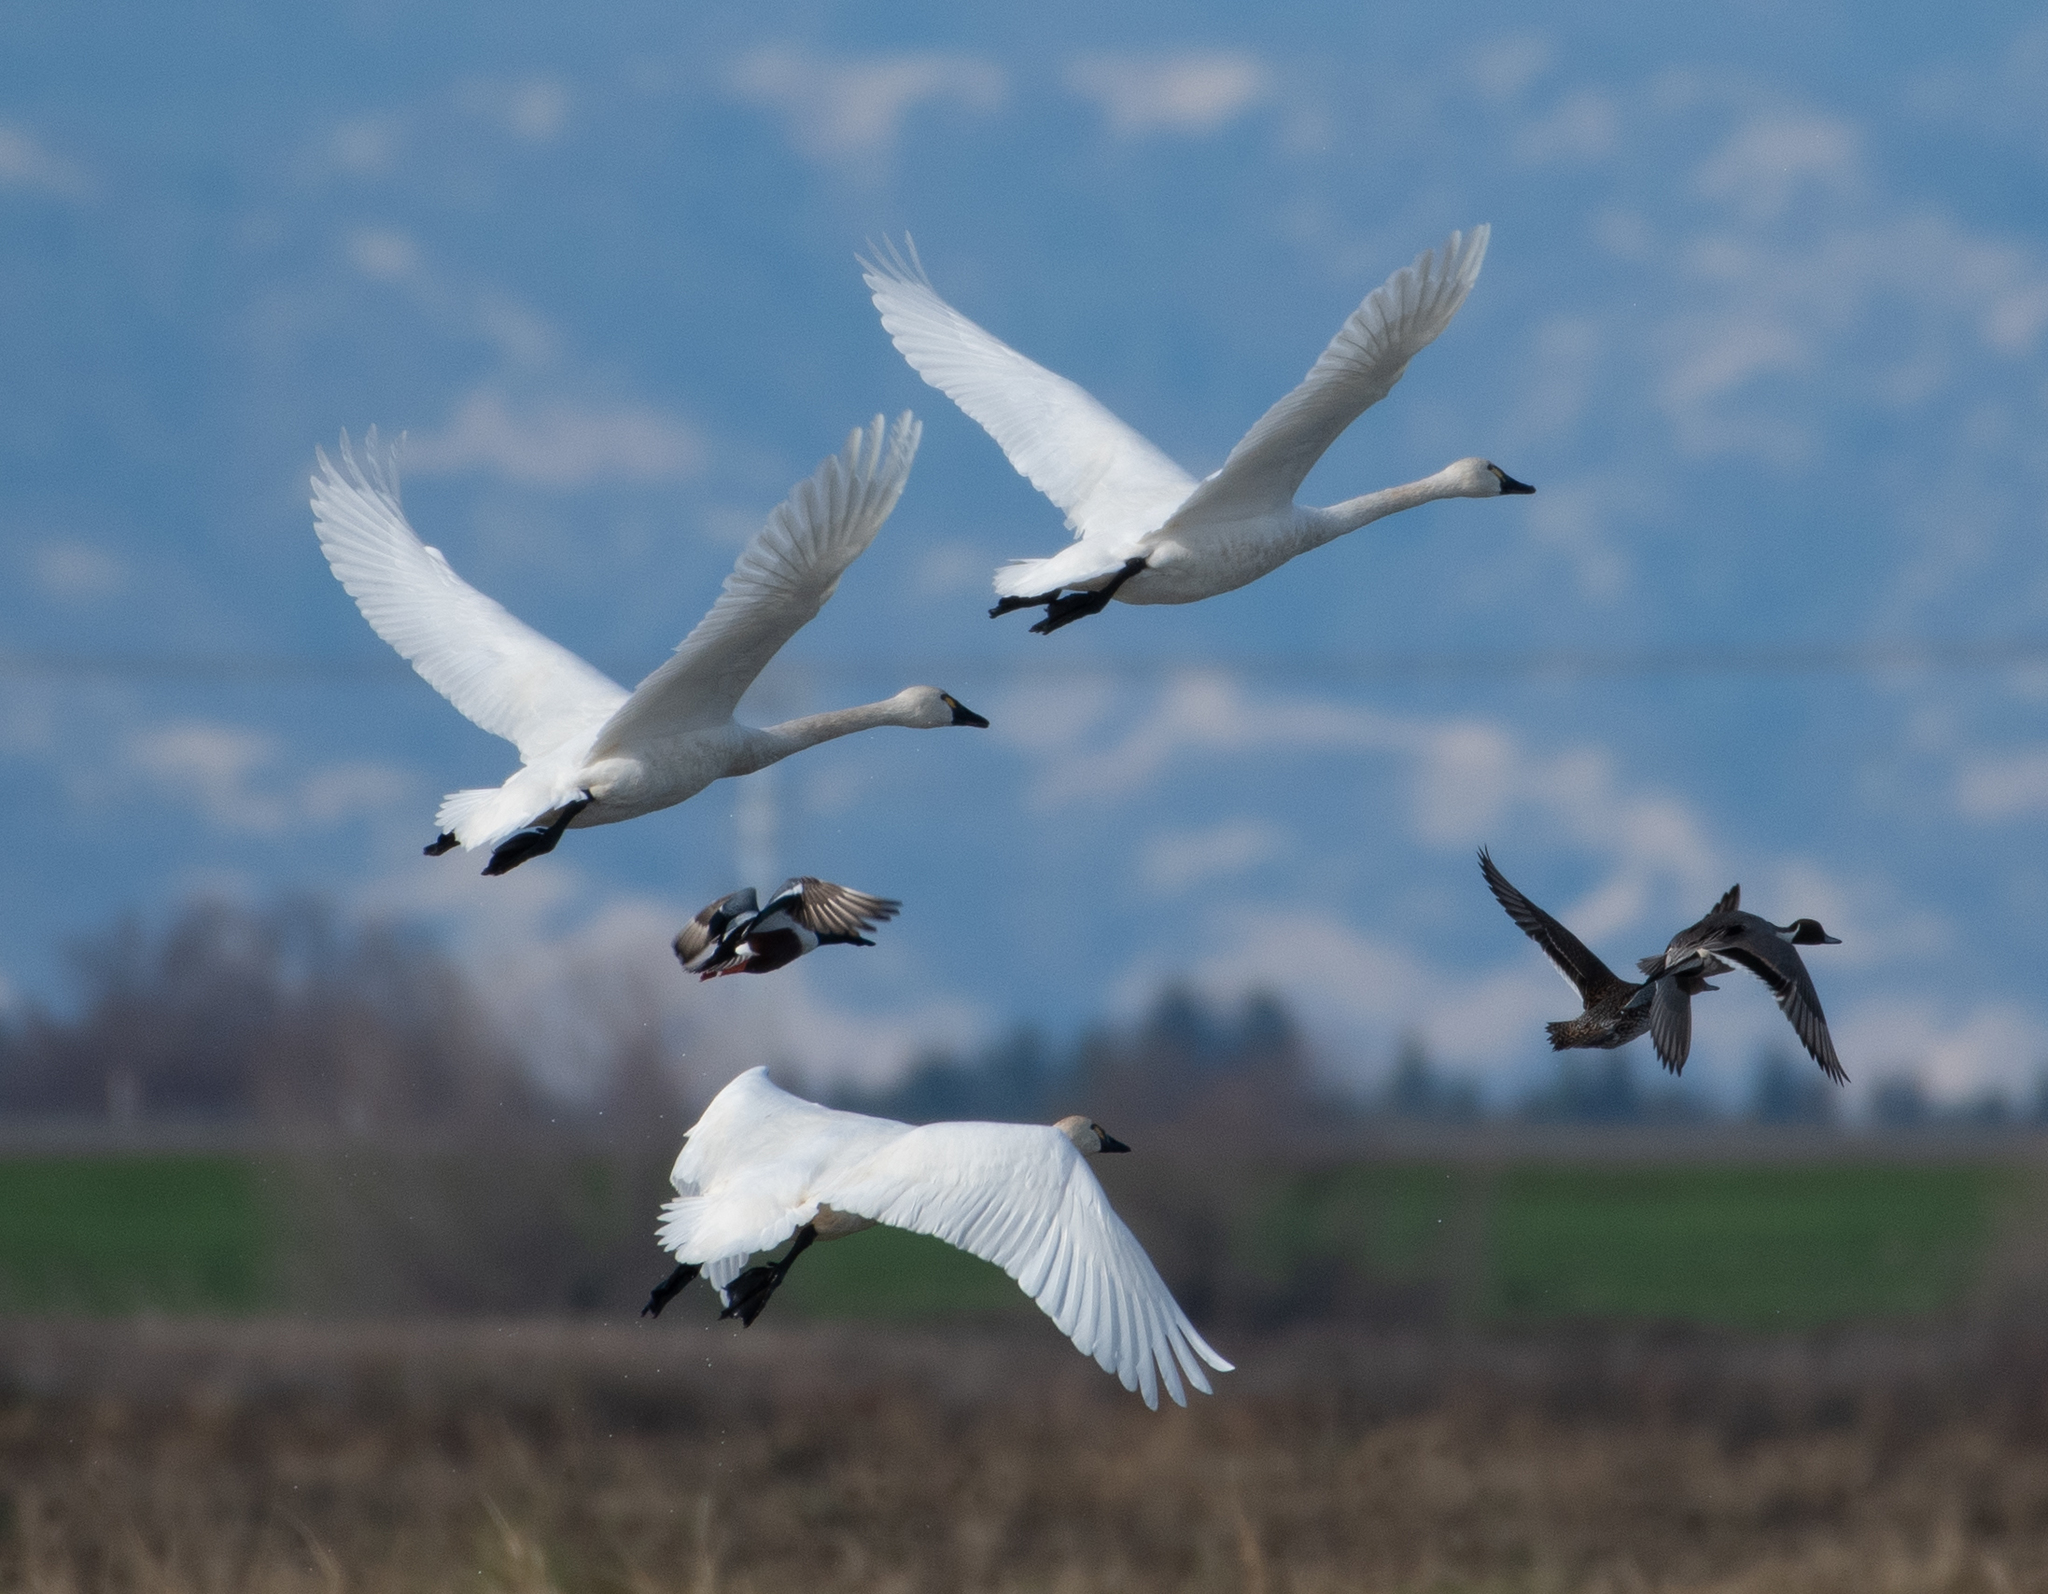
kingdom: Animalia
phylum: Chordata
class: Aves
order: Anseriformes
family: Anatidae
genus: Cygnus
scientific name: Cygnus columbianus
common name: Tundra swan
